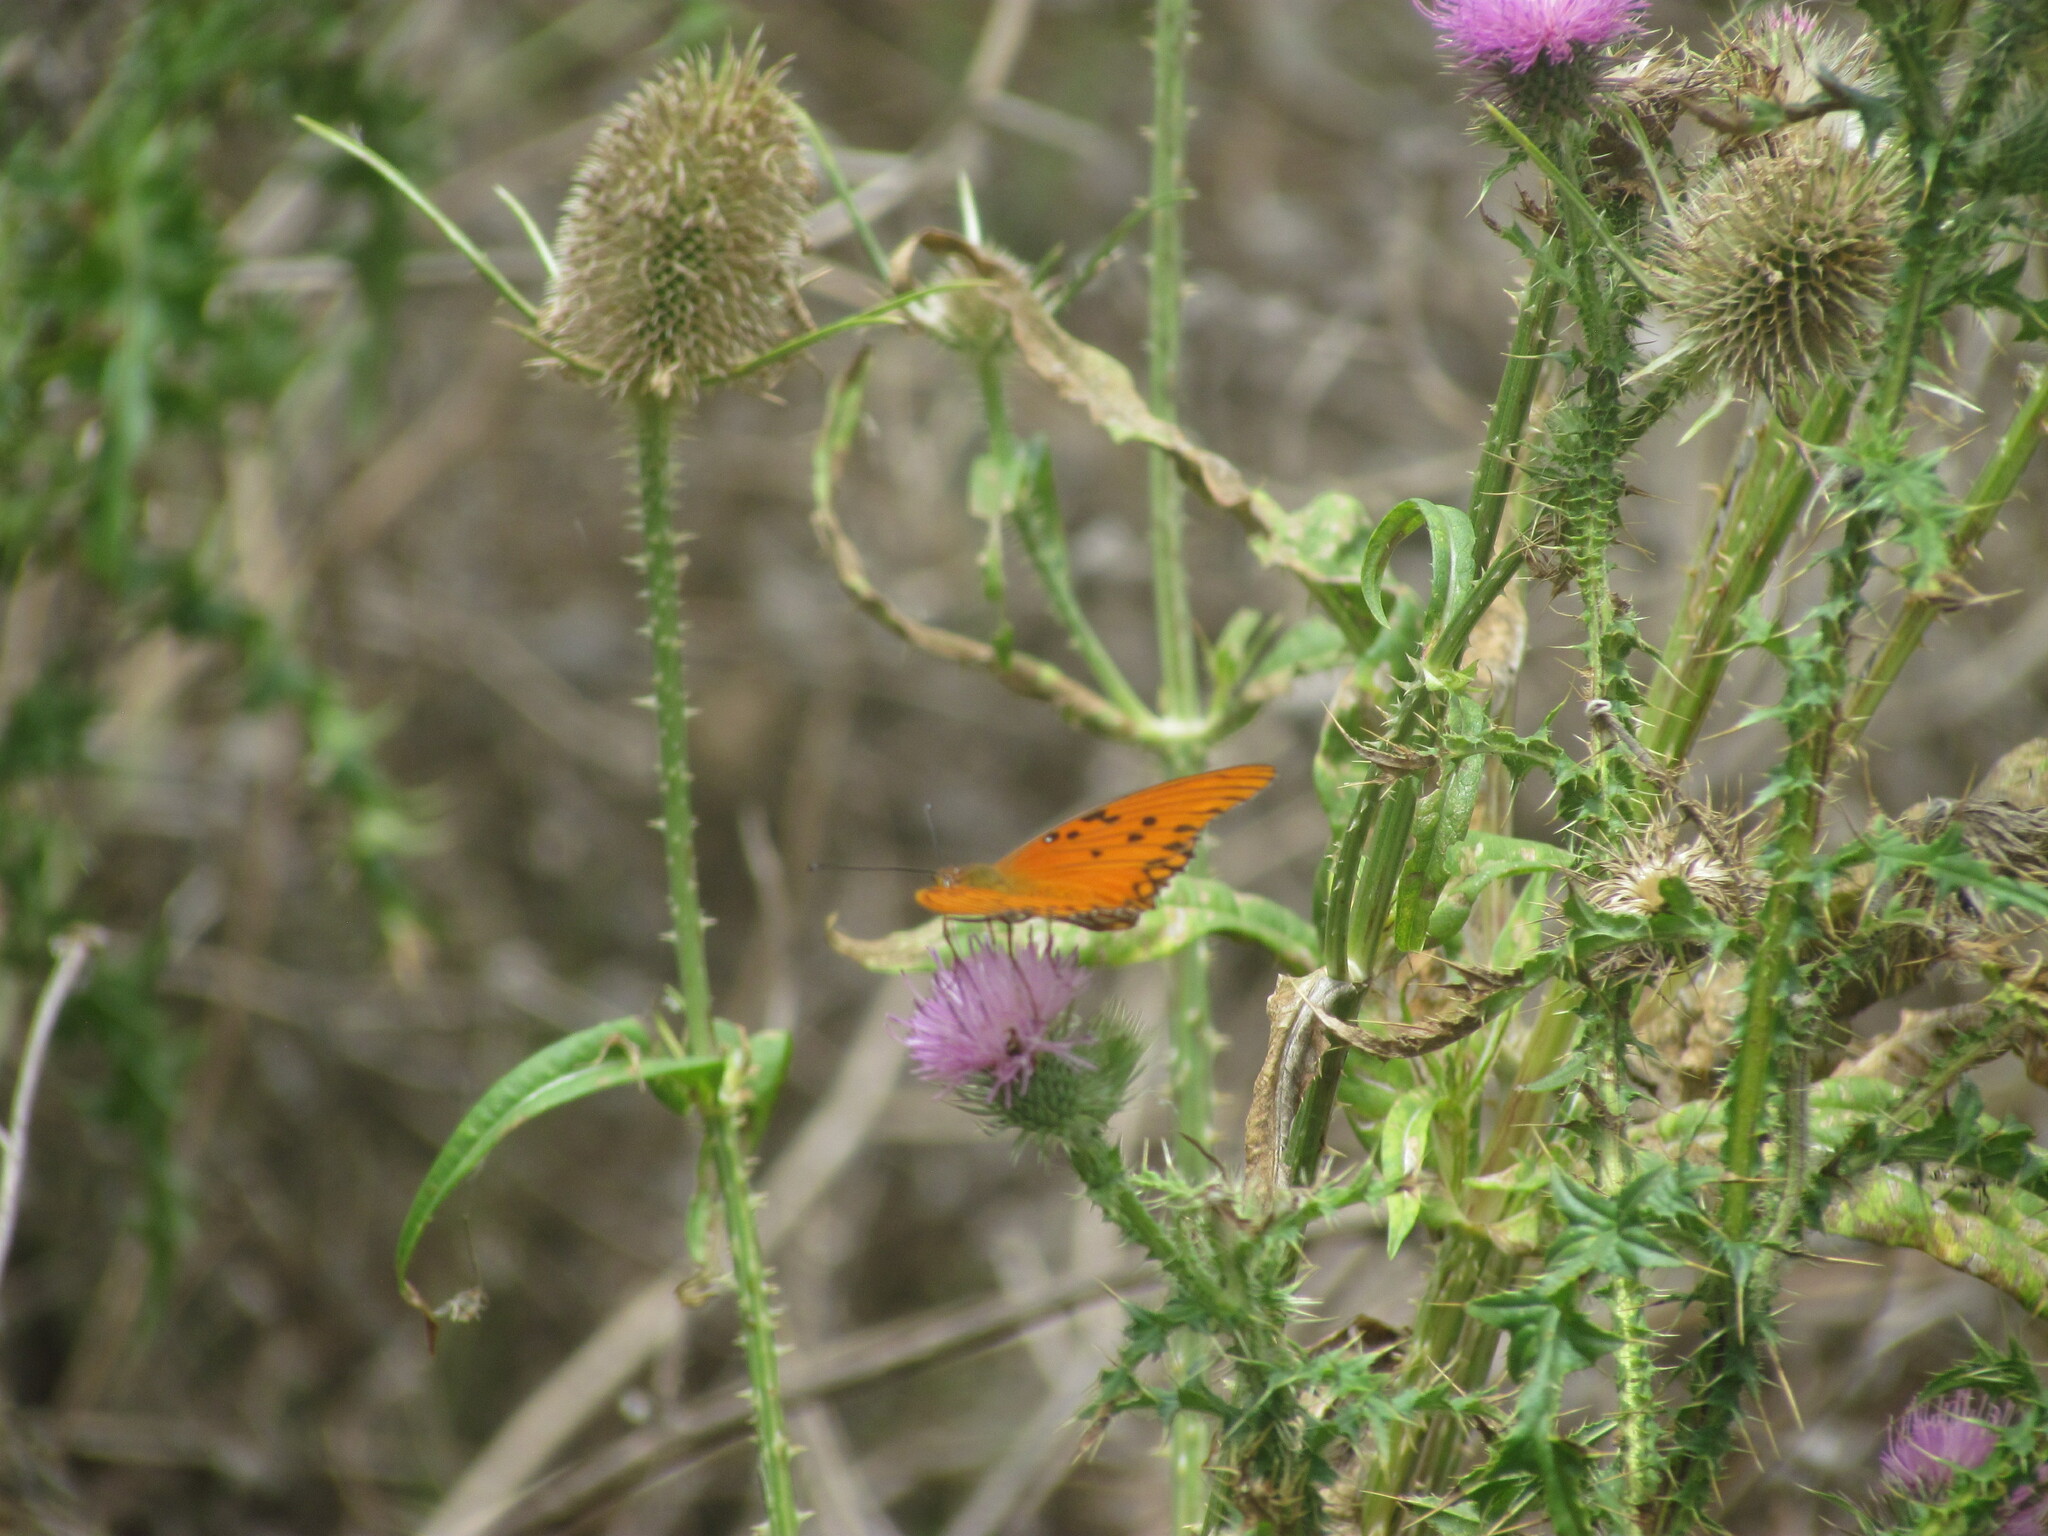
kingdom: Animalia
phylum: Arthropoda
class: Insecta
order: Lepidoptera
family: Nymphalidae
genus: Dione
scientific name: Dione vanillae
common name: Gulf fritillary
